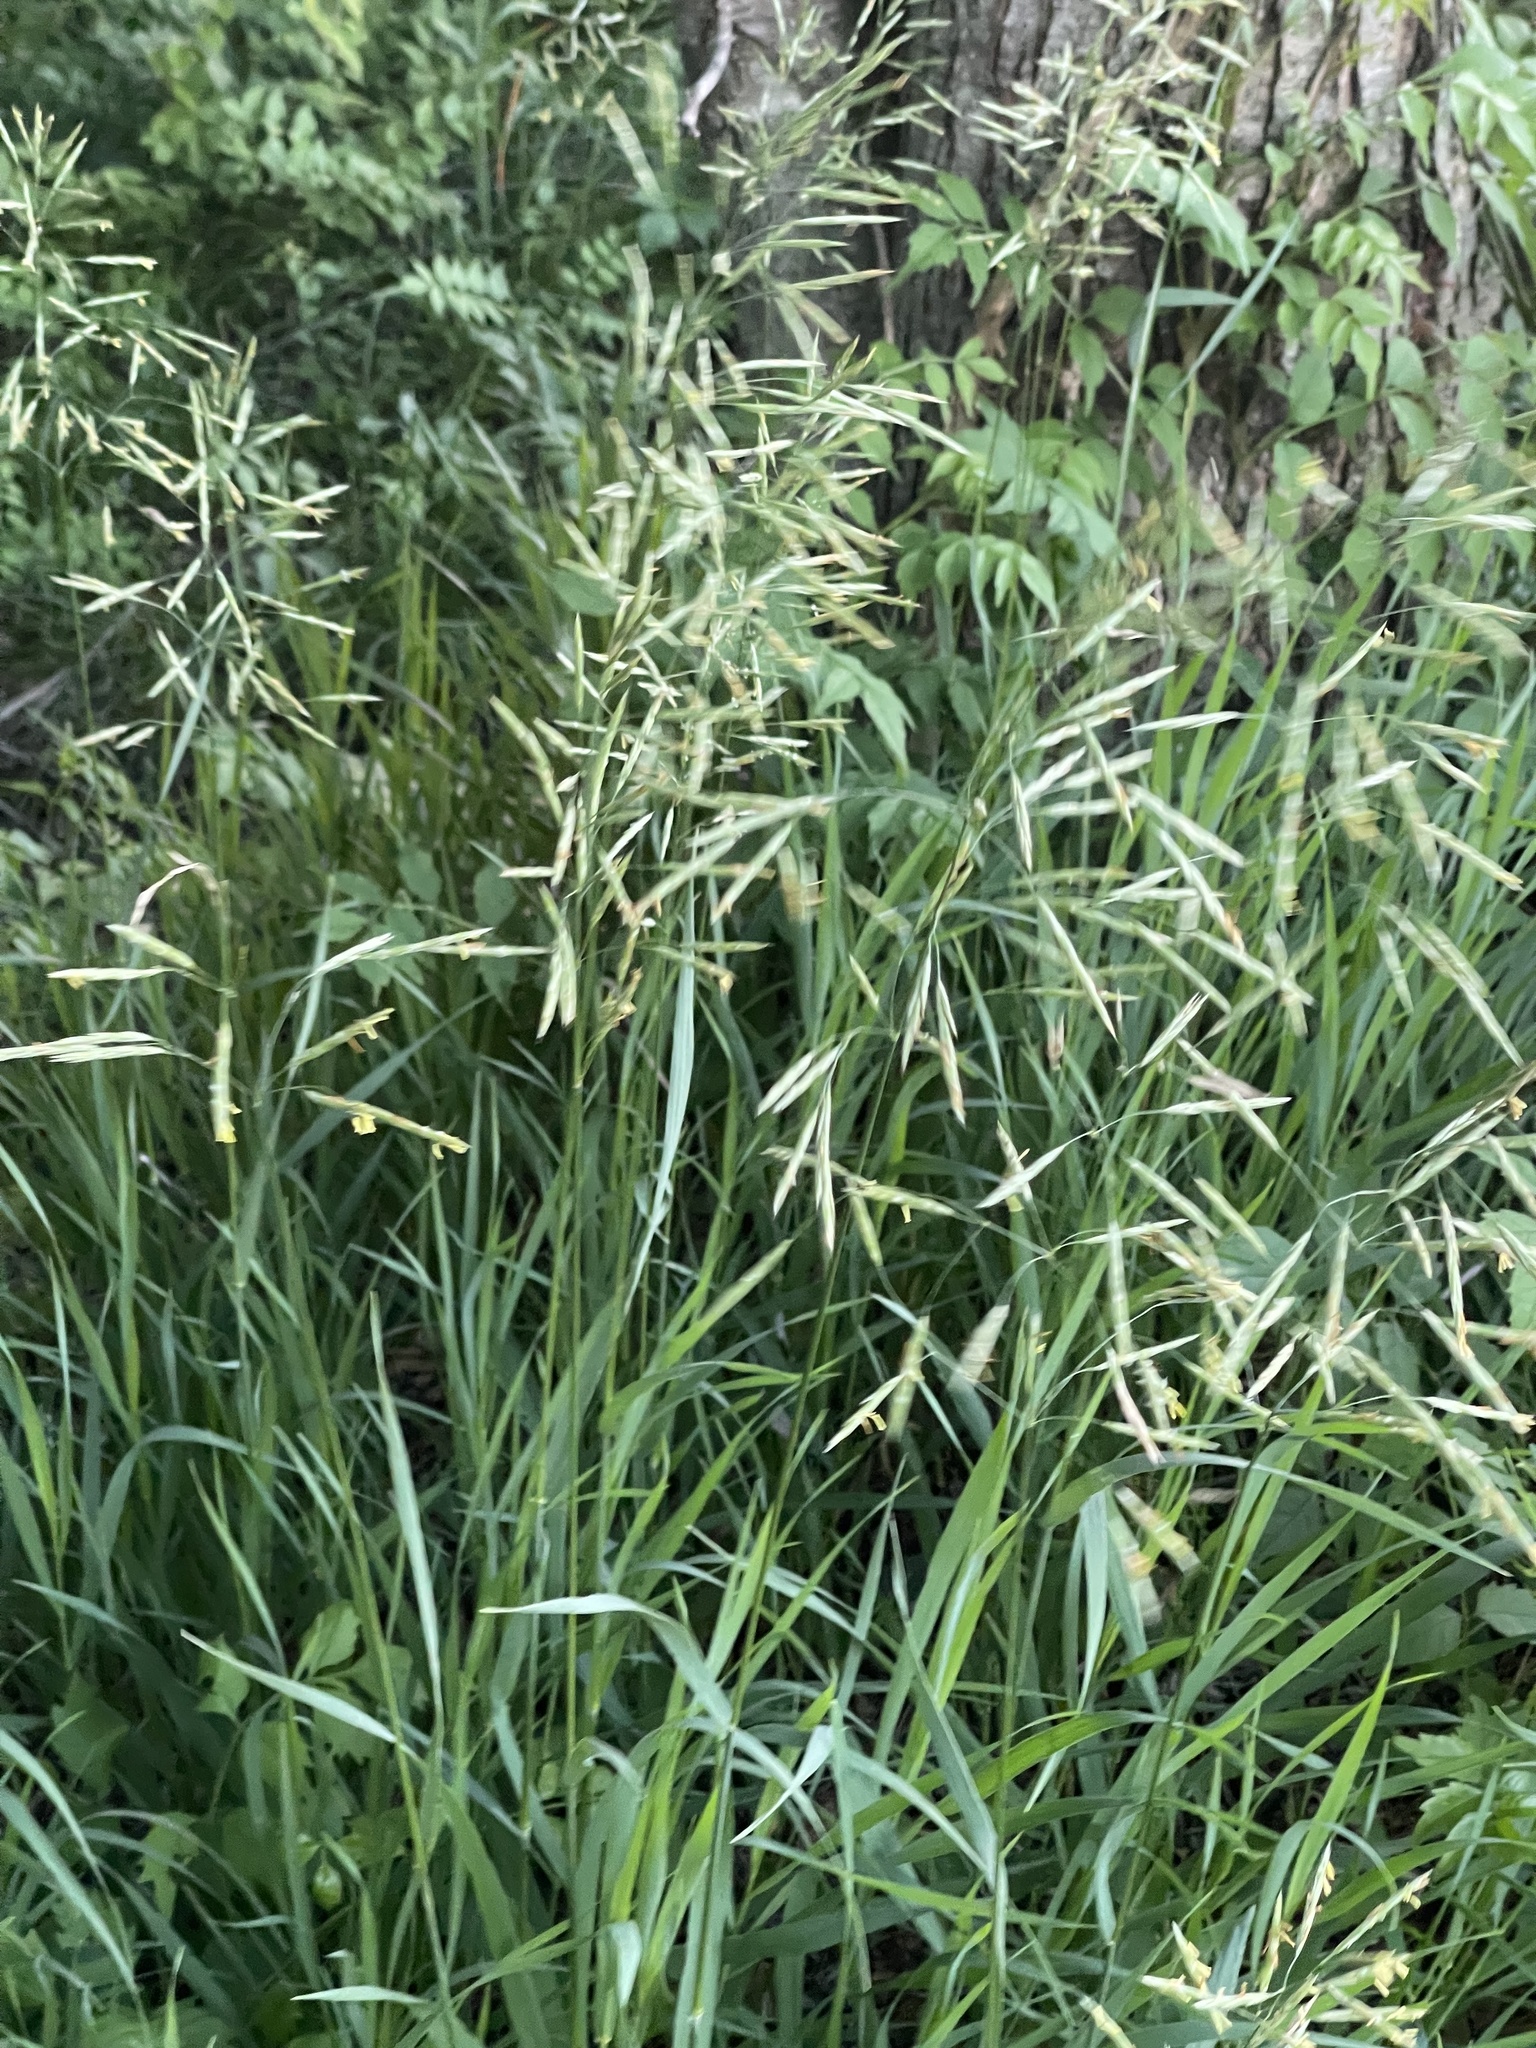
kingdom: Plantae
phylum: Tracheophyta
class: Liliopsida
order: Poales
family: Poaceae
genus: Bromus
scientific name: Bromus inermis
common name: Smooth brome
